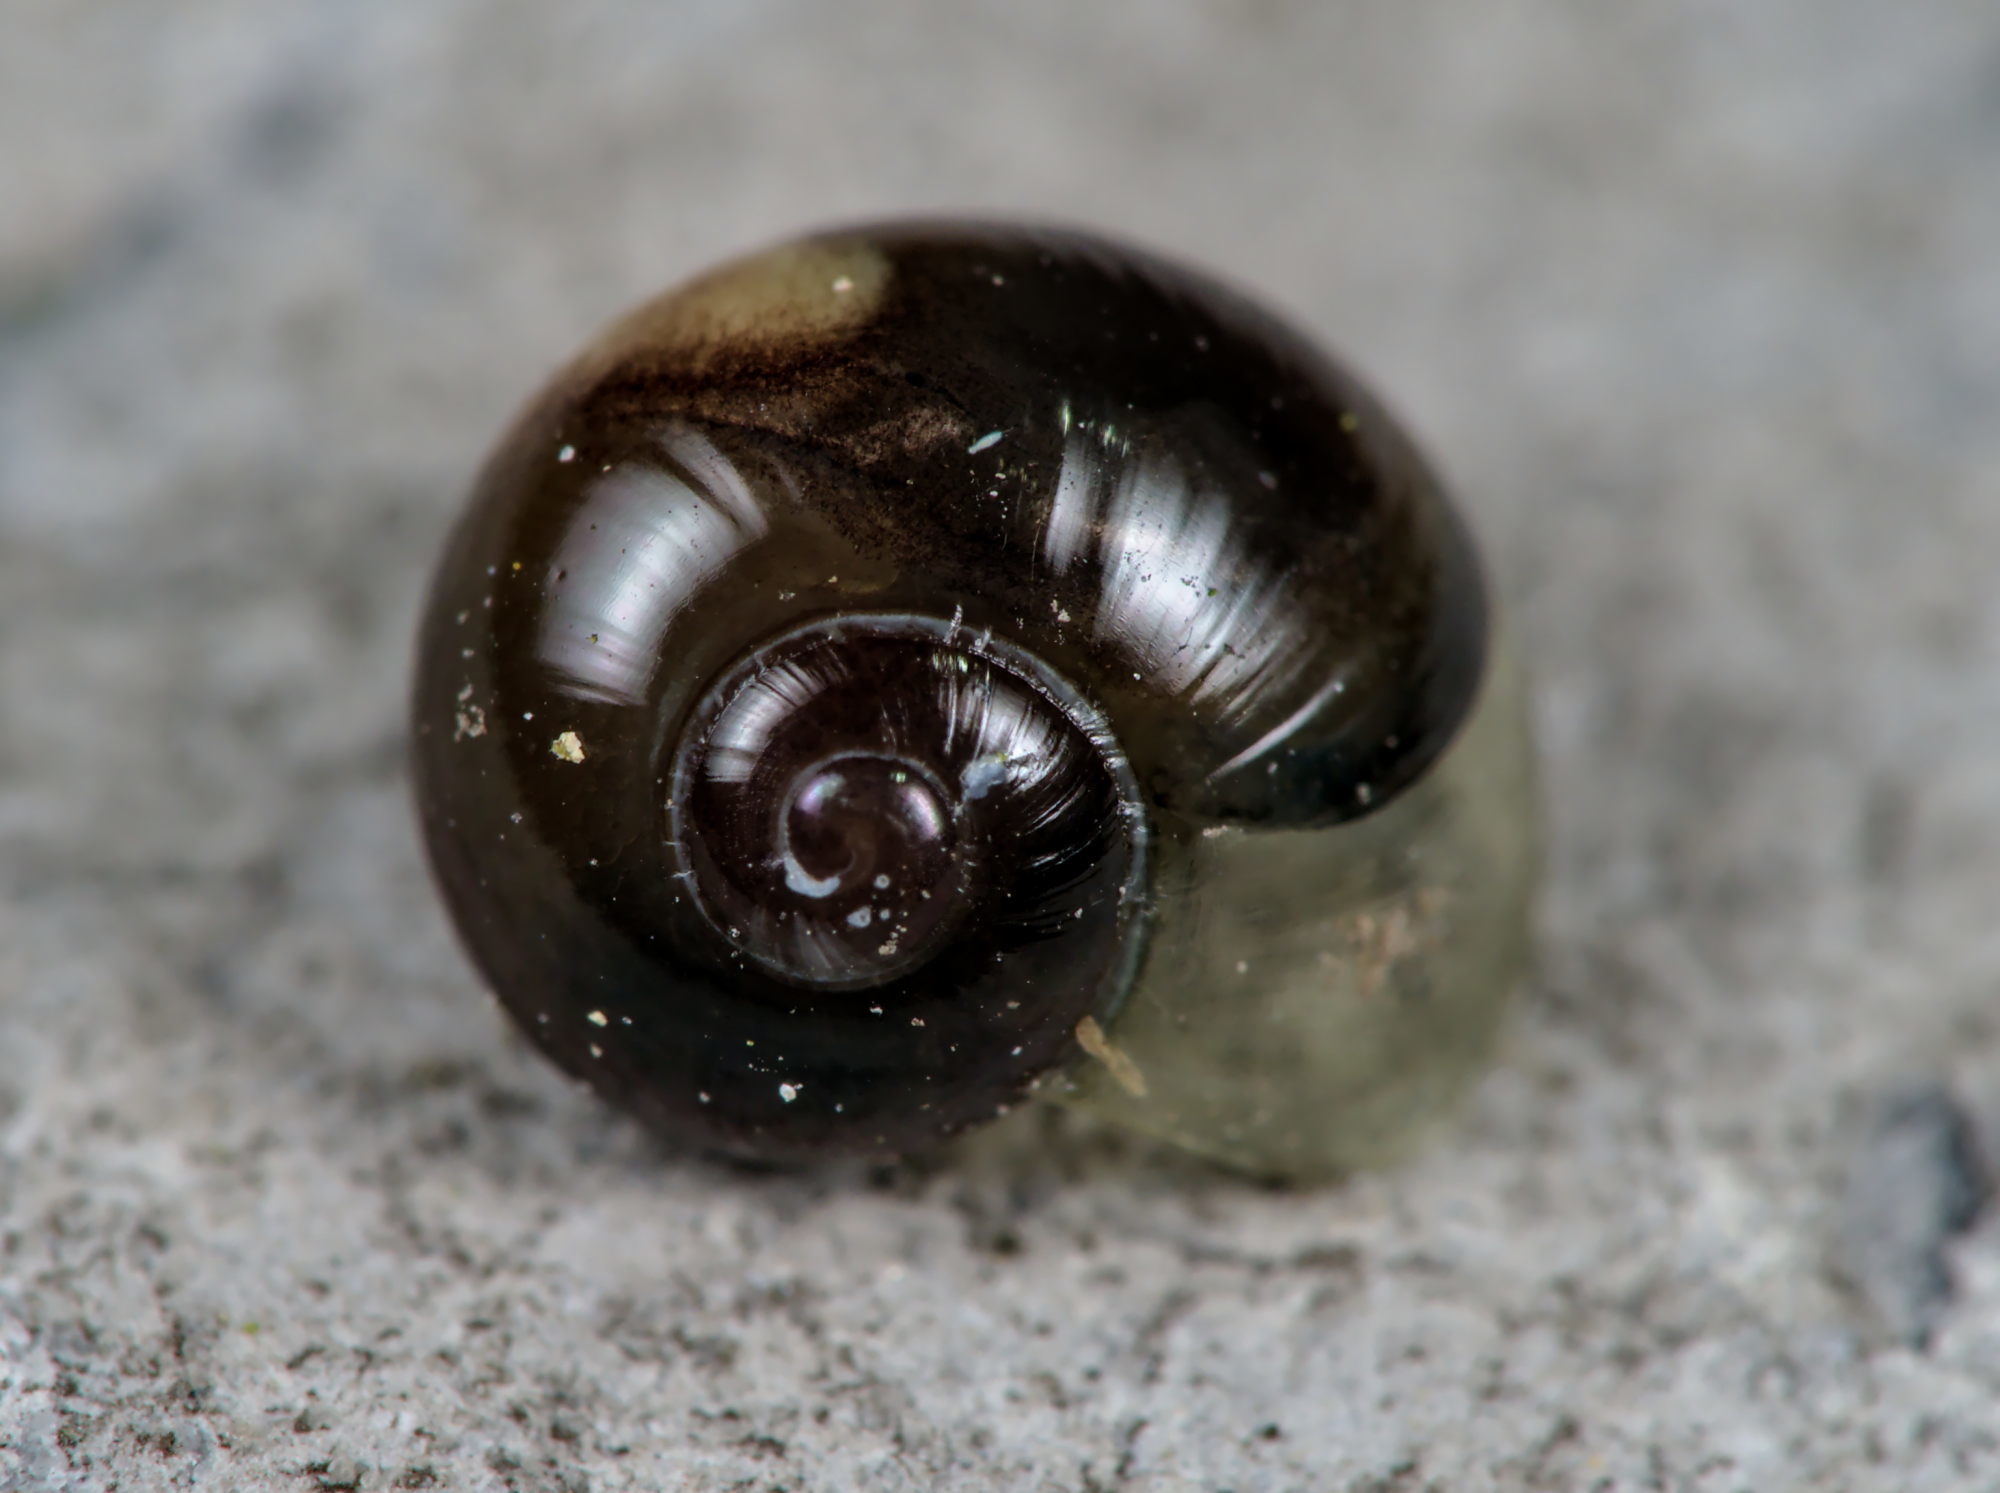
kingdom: Animalia
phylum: Mollusca
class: Gastropoda
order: Stylommatophora
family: Vitrinidae
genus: Vitrina
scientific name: Vitrina pellucida
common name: Pellucid glass snail
